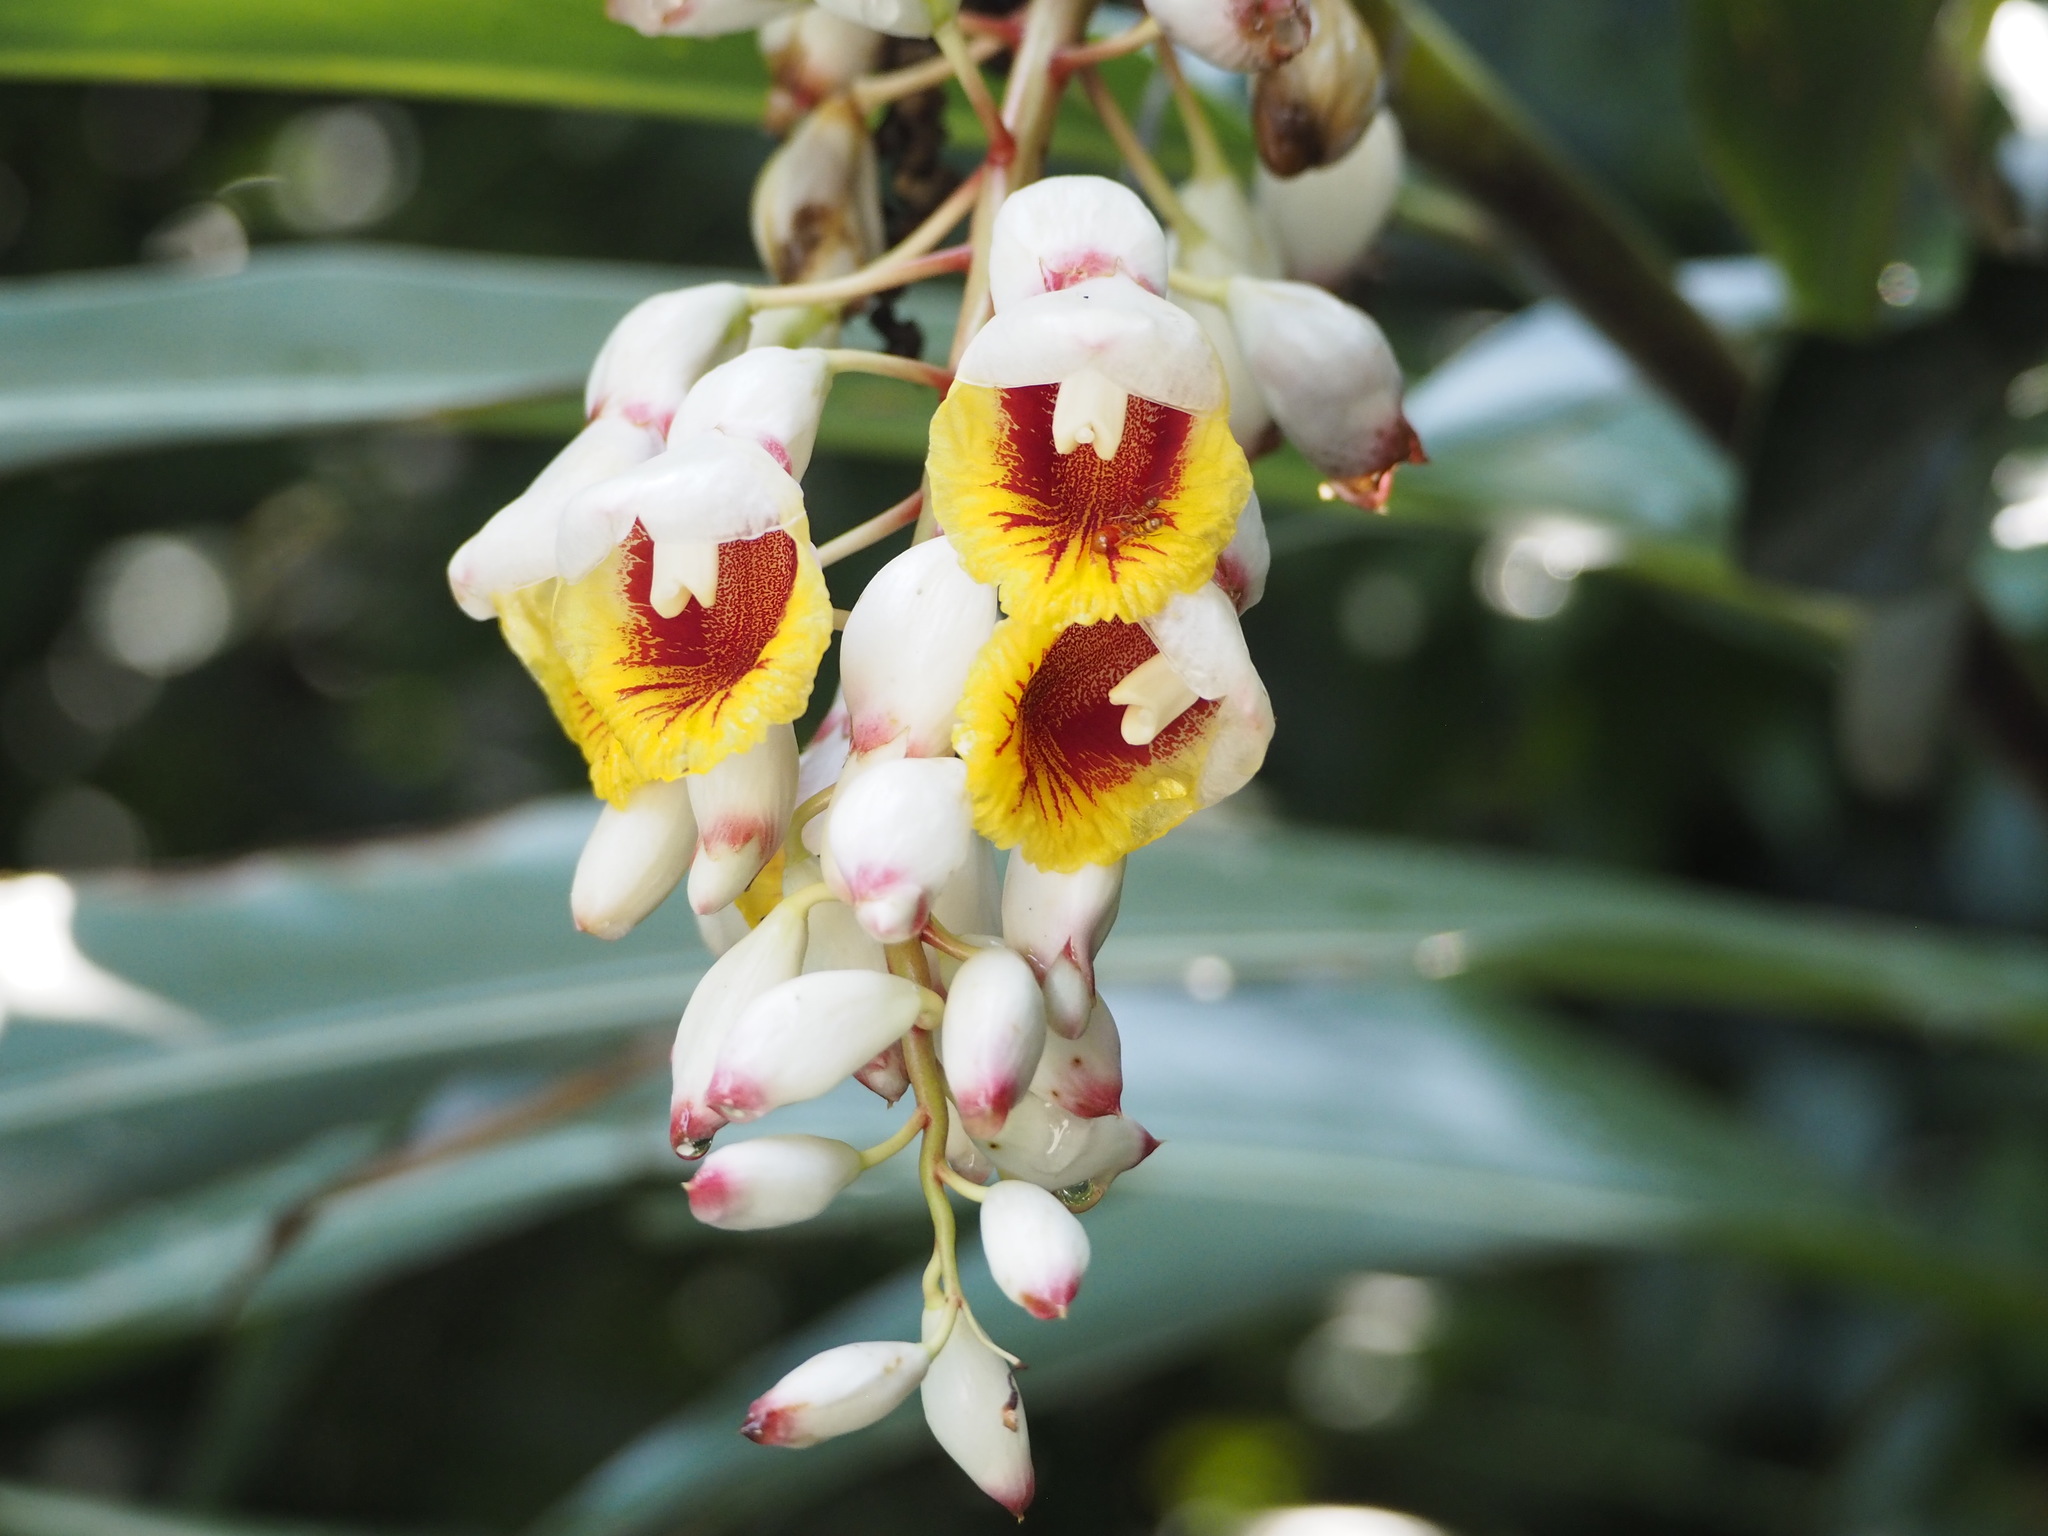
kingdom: Plantae
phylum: Tracheophyta
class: Liliopsida
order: Zingiberales
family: Zingiberaceae
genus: Alpinia
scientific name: Alpinia zerumbet
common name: Shellplant
